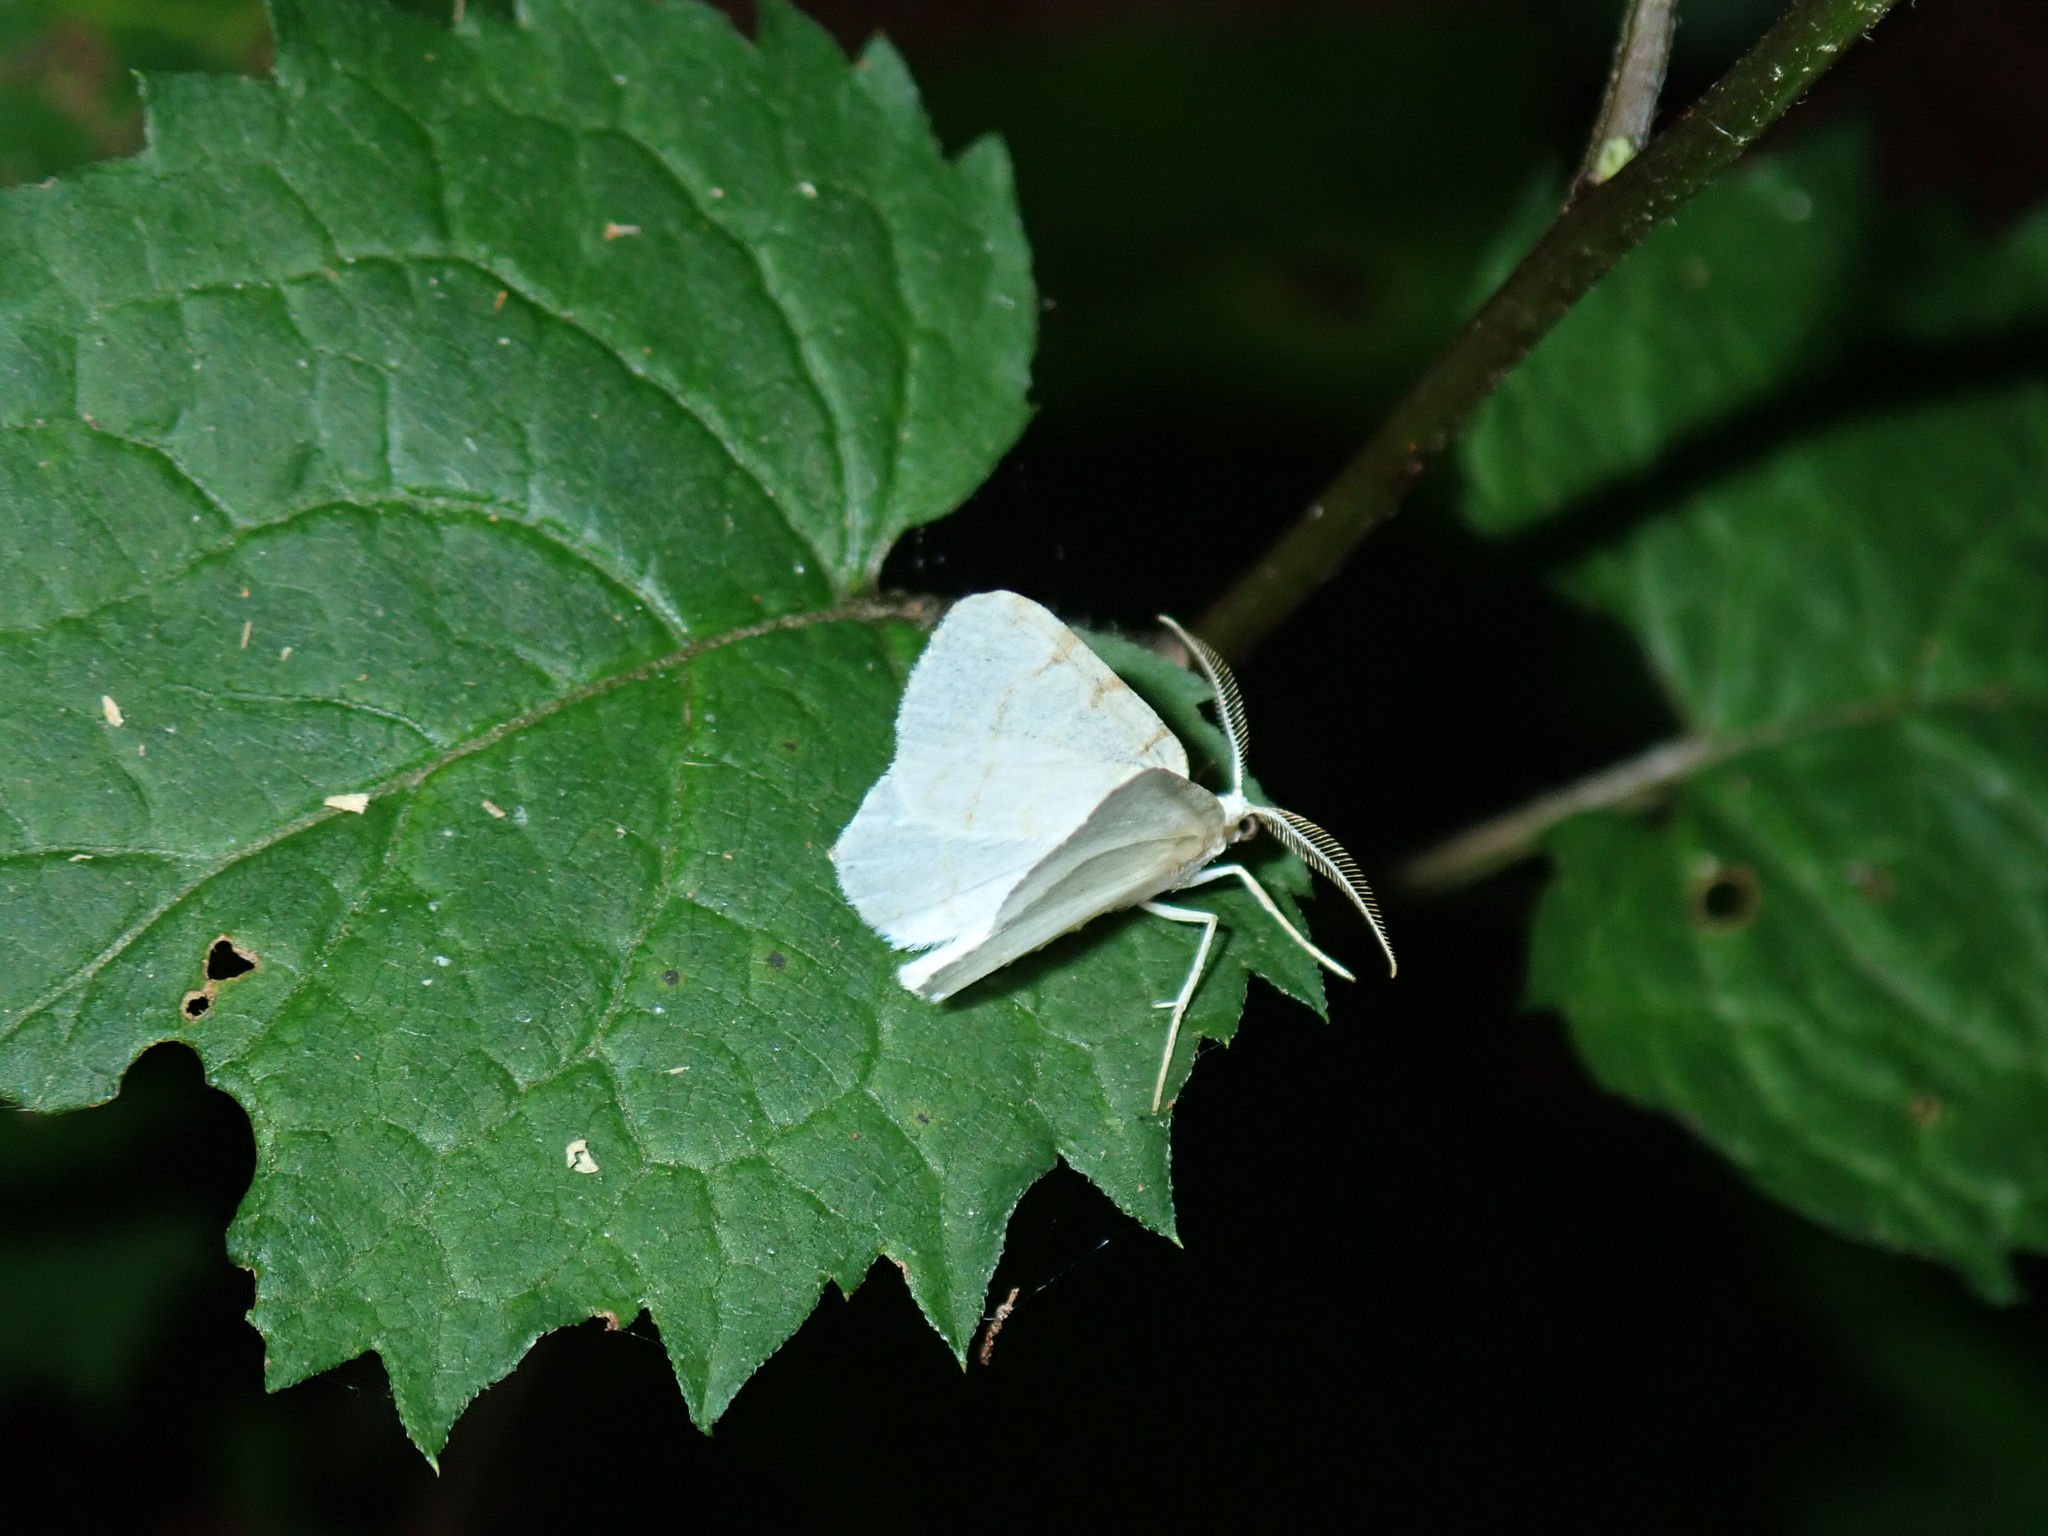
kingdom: Animalia
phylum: Arthropoda
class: Insecta
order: Lepidoptera
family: Geometridae
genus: Macaria
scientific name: Macaria pustularia
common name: Lesser maple spanworm moth
